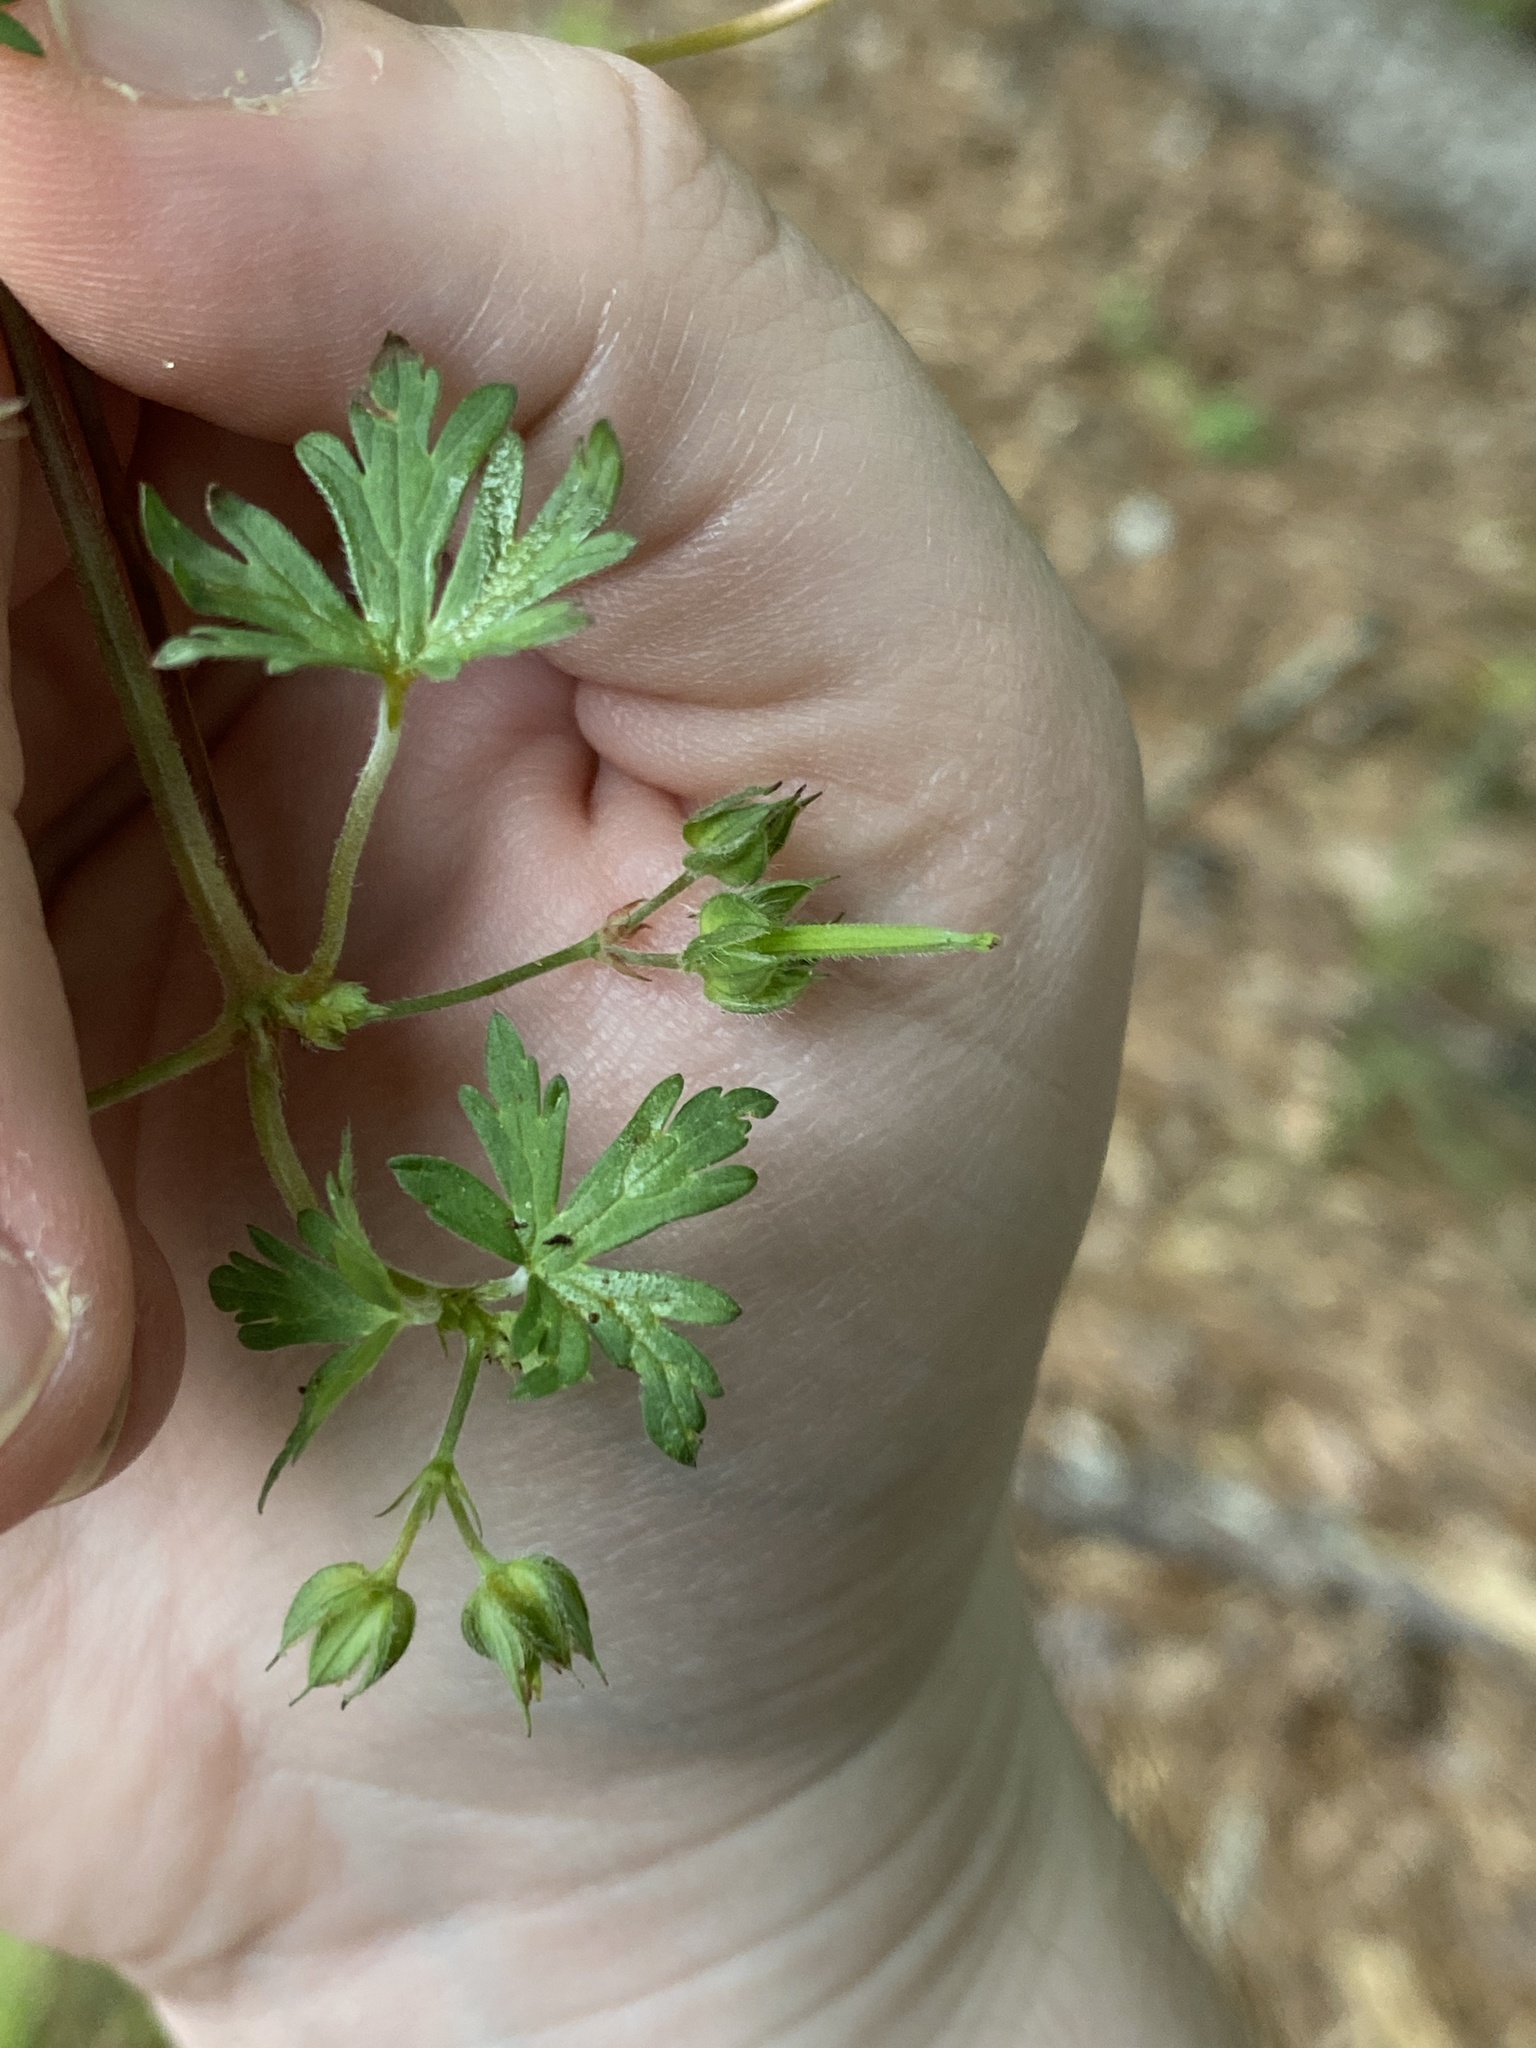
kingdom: Plantae
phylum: Tracheophyta
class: Magnoliopsida
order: Geraniales
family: Geraniaceae
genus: Geranium
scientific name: Geranium carolinianum
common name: Carolina crane's-bill
